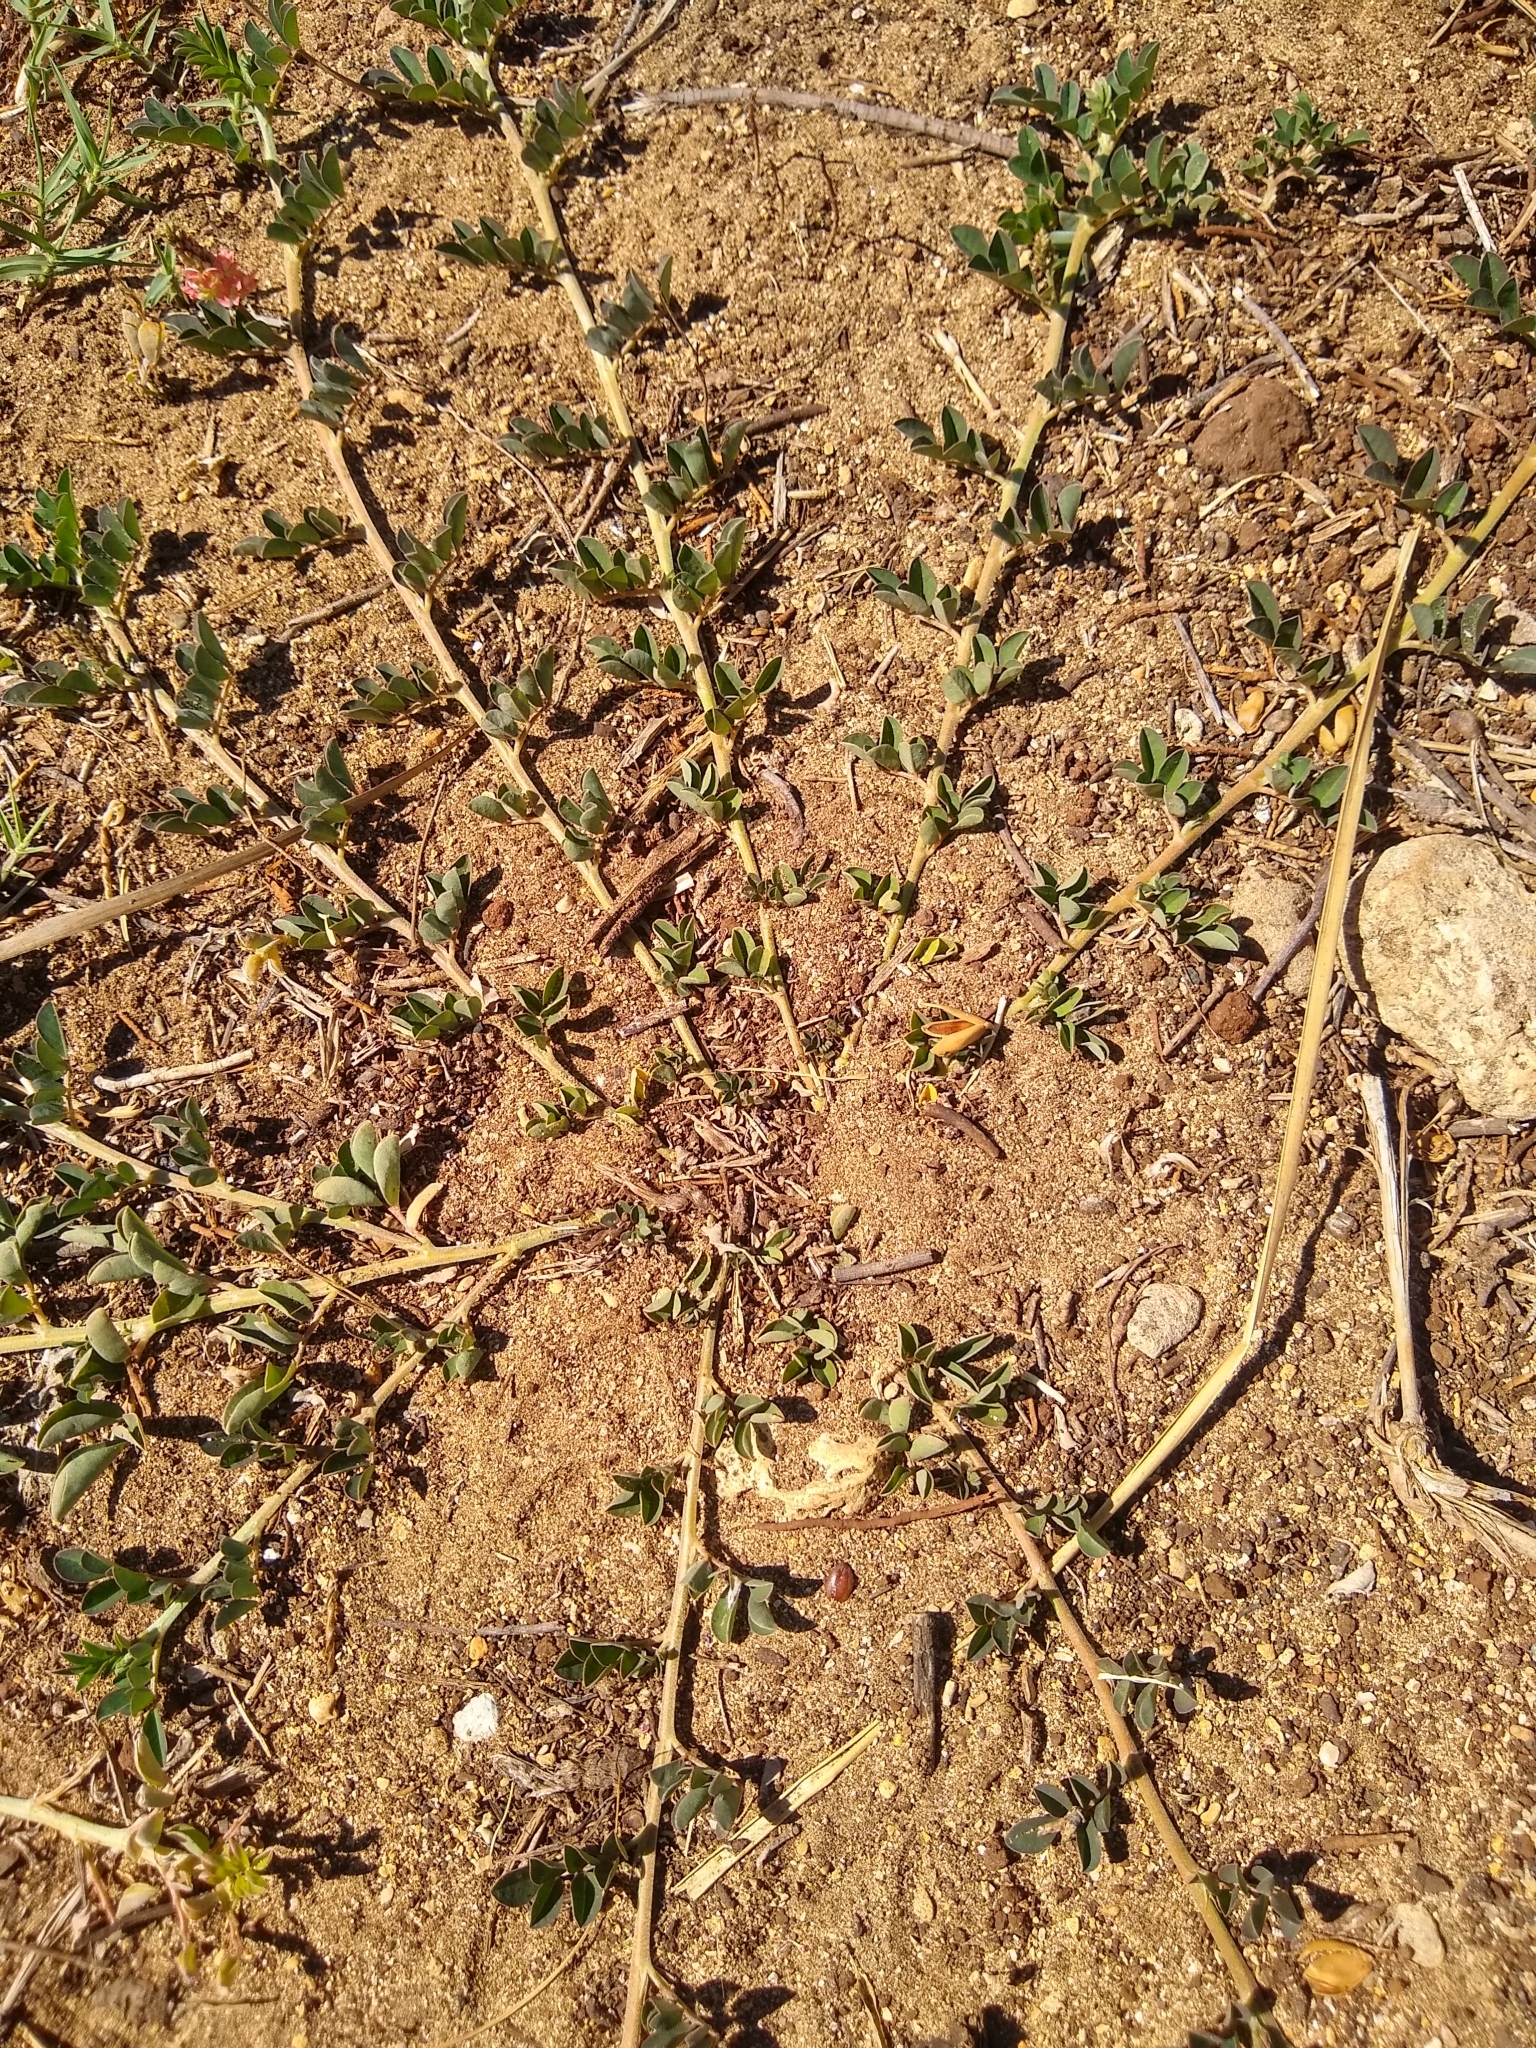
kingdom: Plantae
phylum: Tracheophyta
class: Magnoliopsida
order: Fabales
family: Fabaceae
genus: Indigofera
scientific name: Indigofera spicata
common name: Creeping indigo
